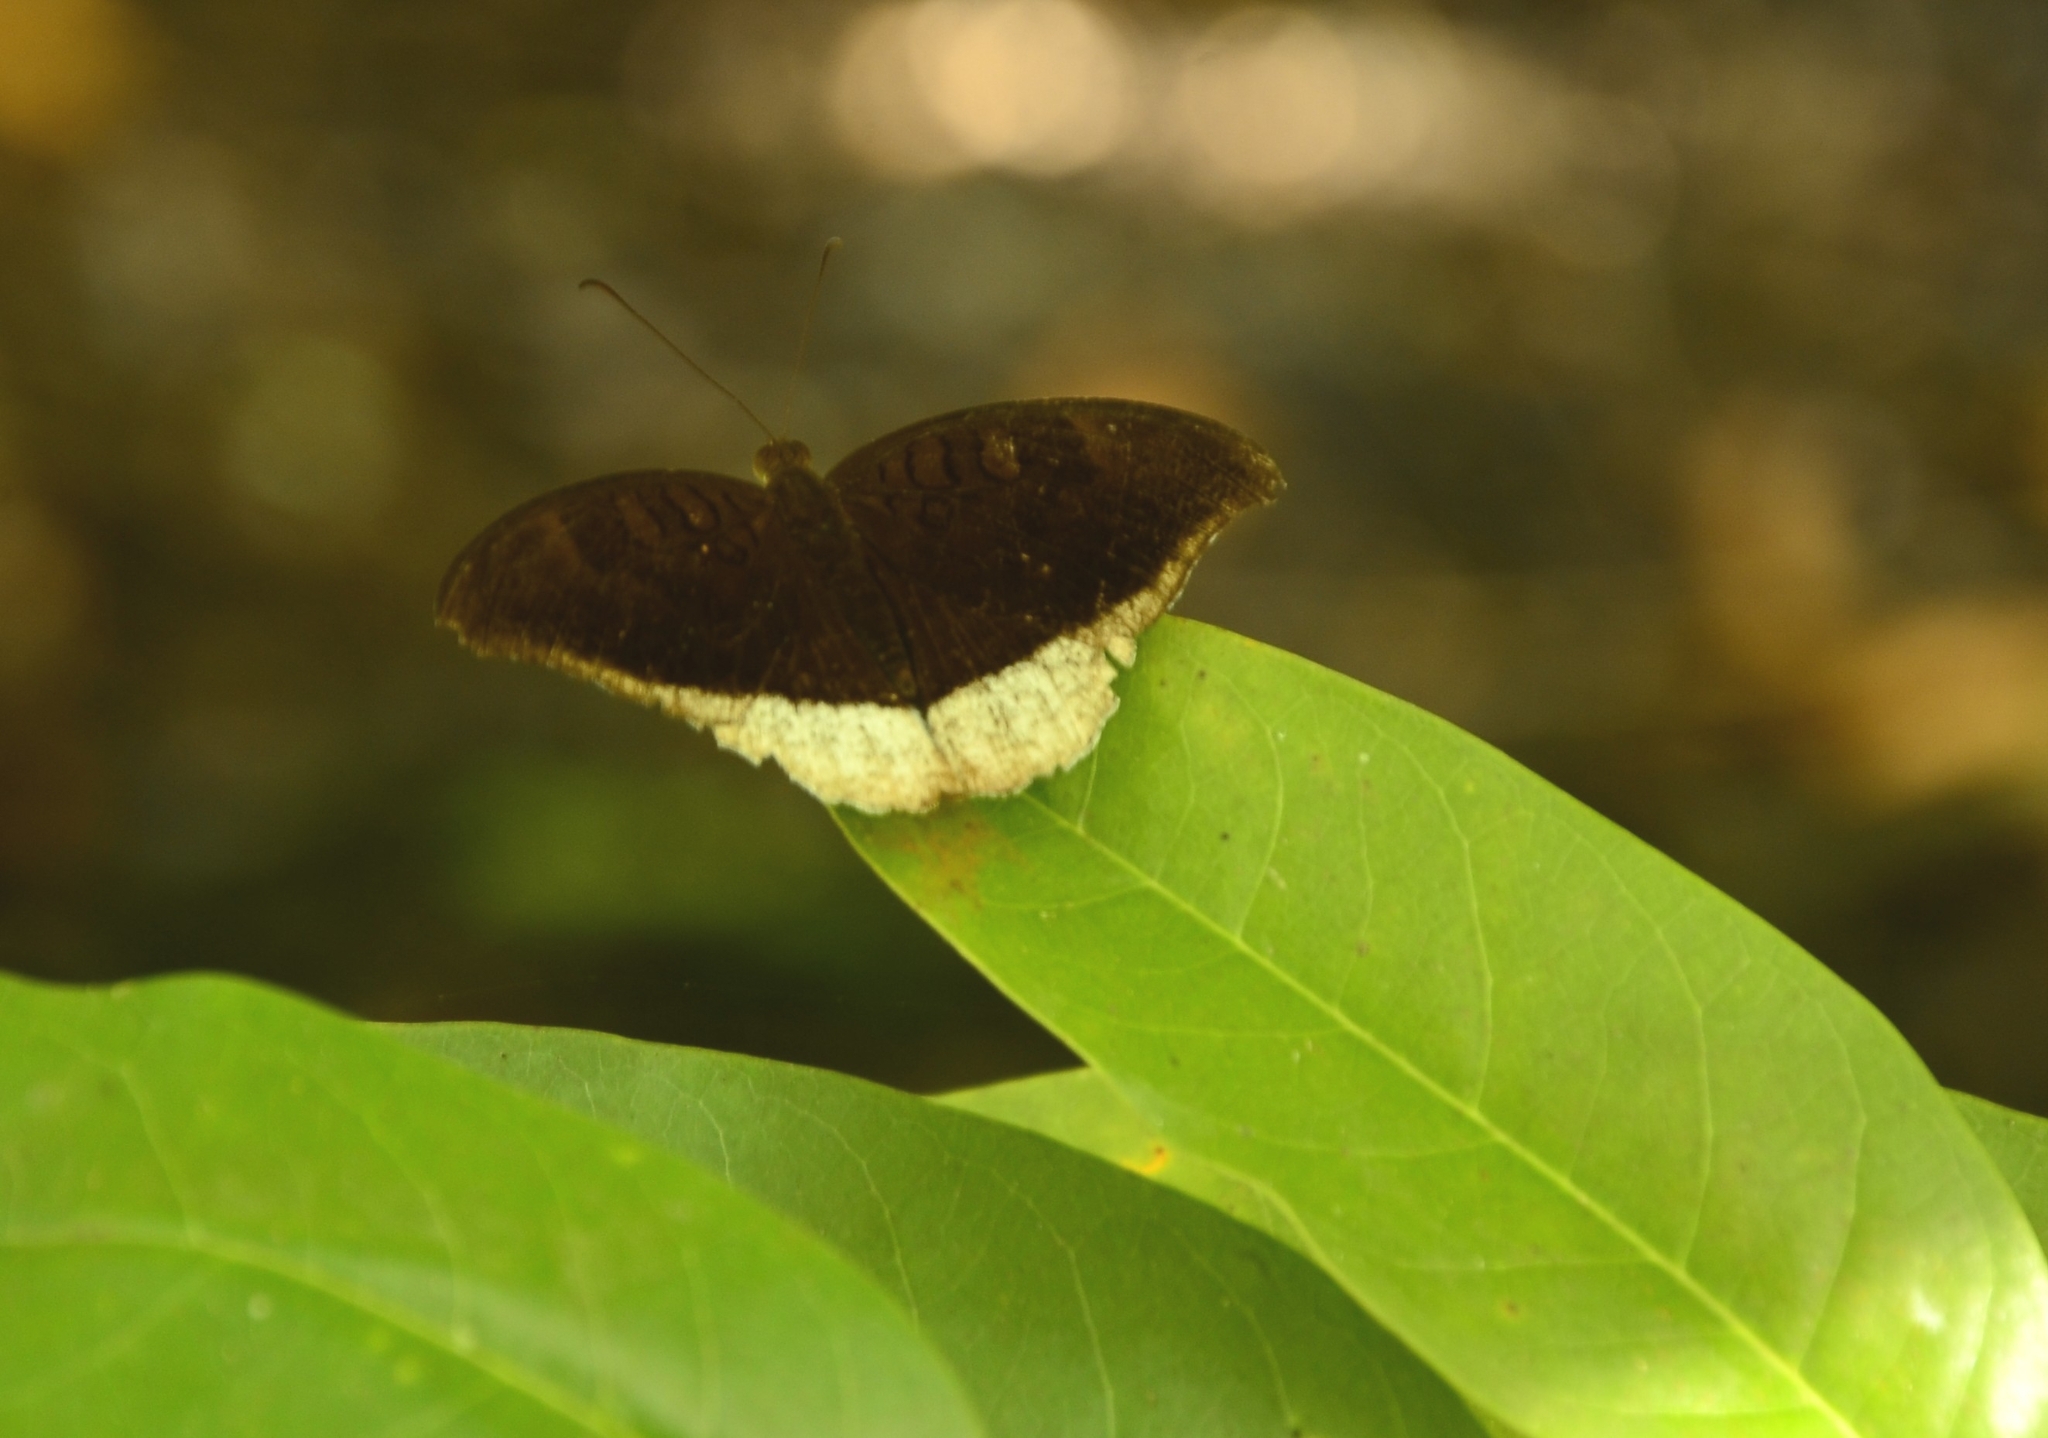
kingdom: Animalia
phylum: Arthropoda
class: Insecta
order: Lepidoptera
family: Nymphalidae
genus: Tanaecia
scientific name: Tanaecia lepidea
